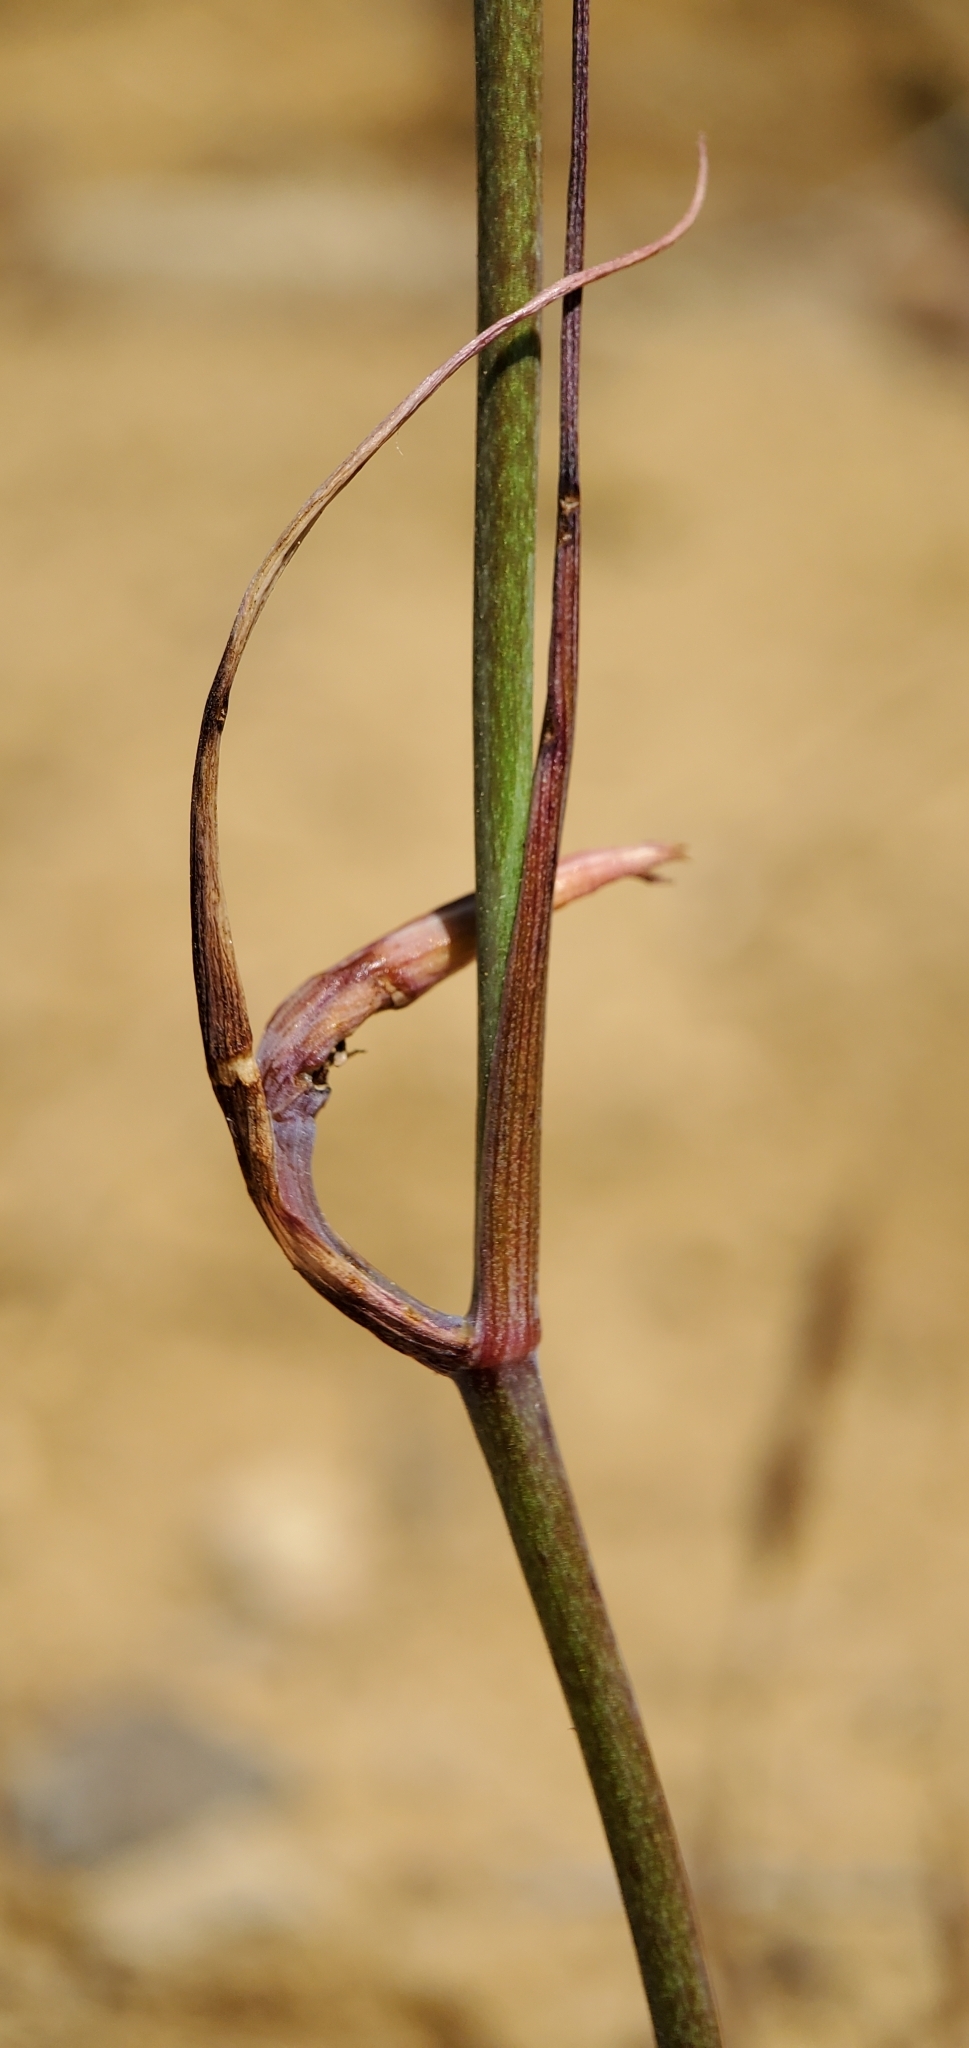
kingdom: Plantae
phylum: Tracheophyta
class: Liliopsida
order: Liliales
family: Liliaceae
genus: Calochortus
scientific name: Calochortus weedii
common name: Weed's mariposa-lily
